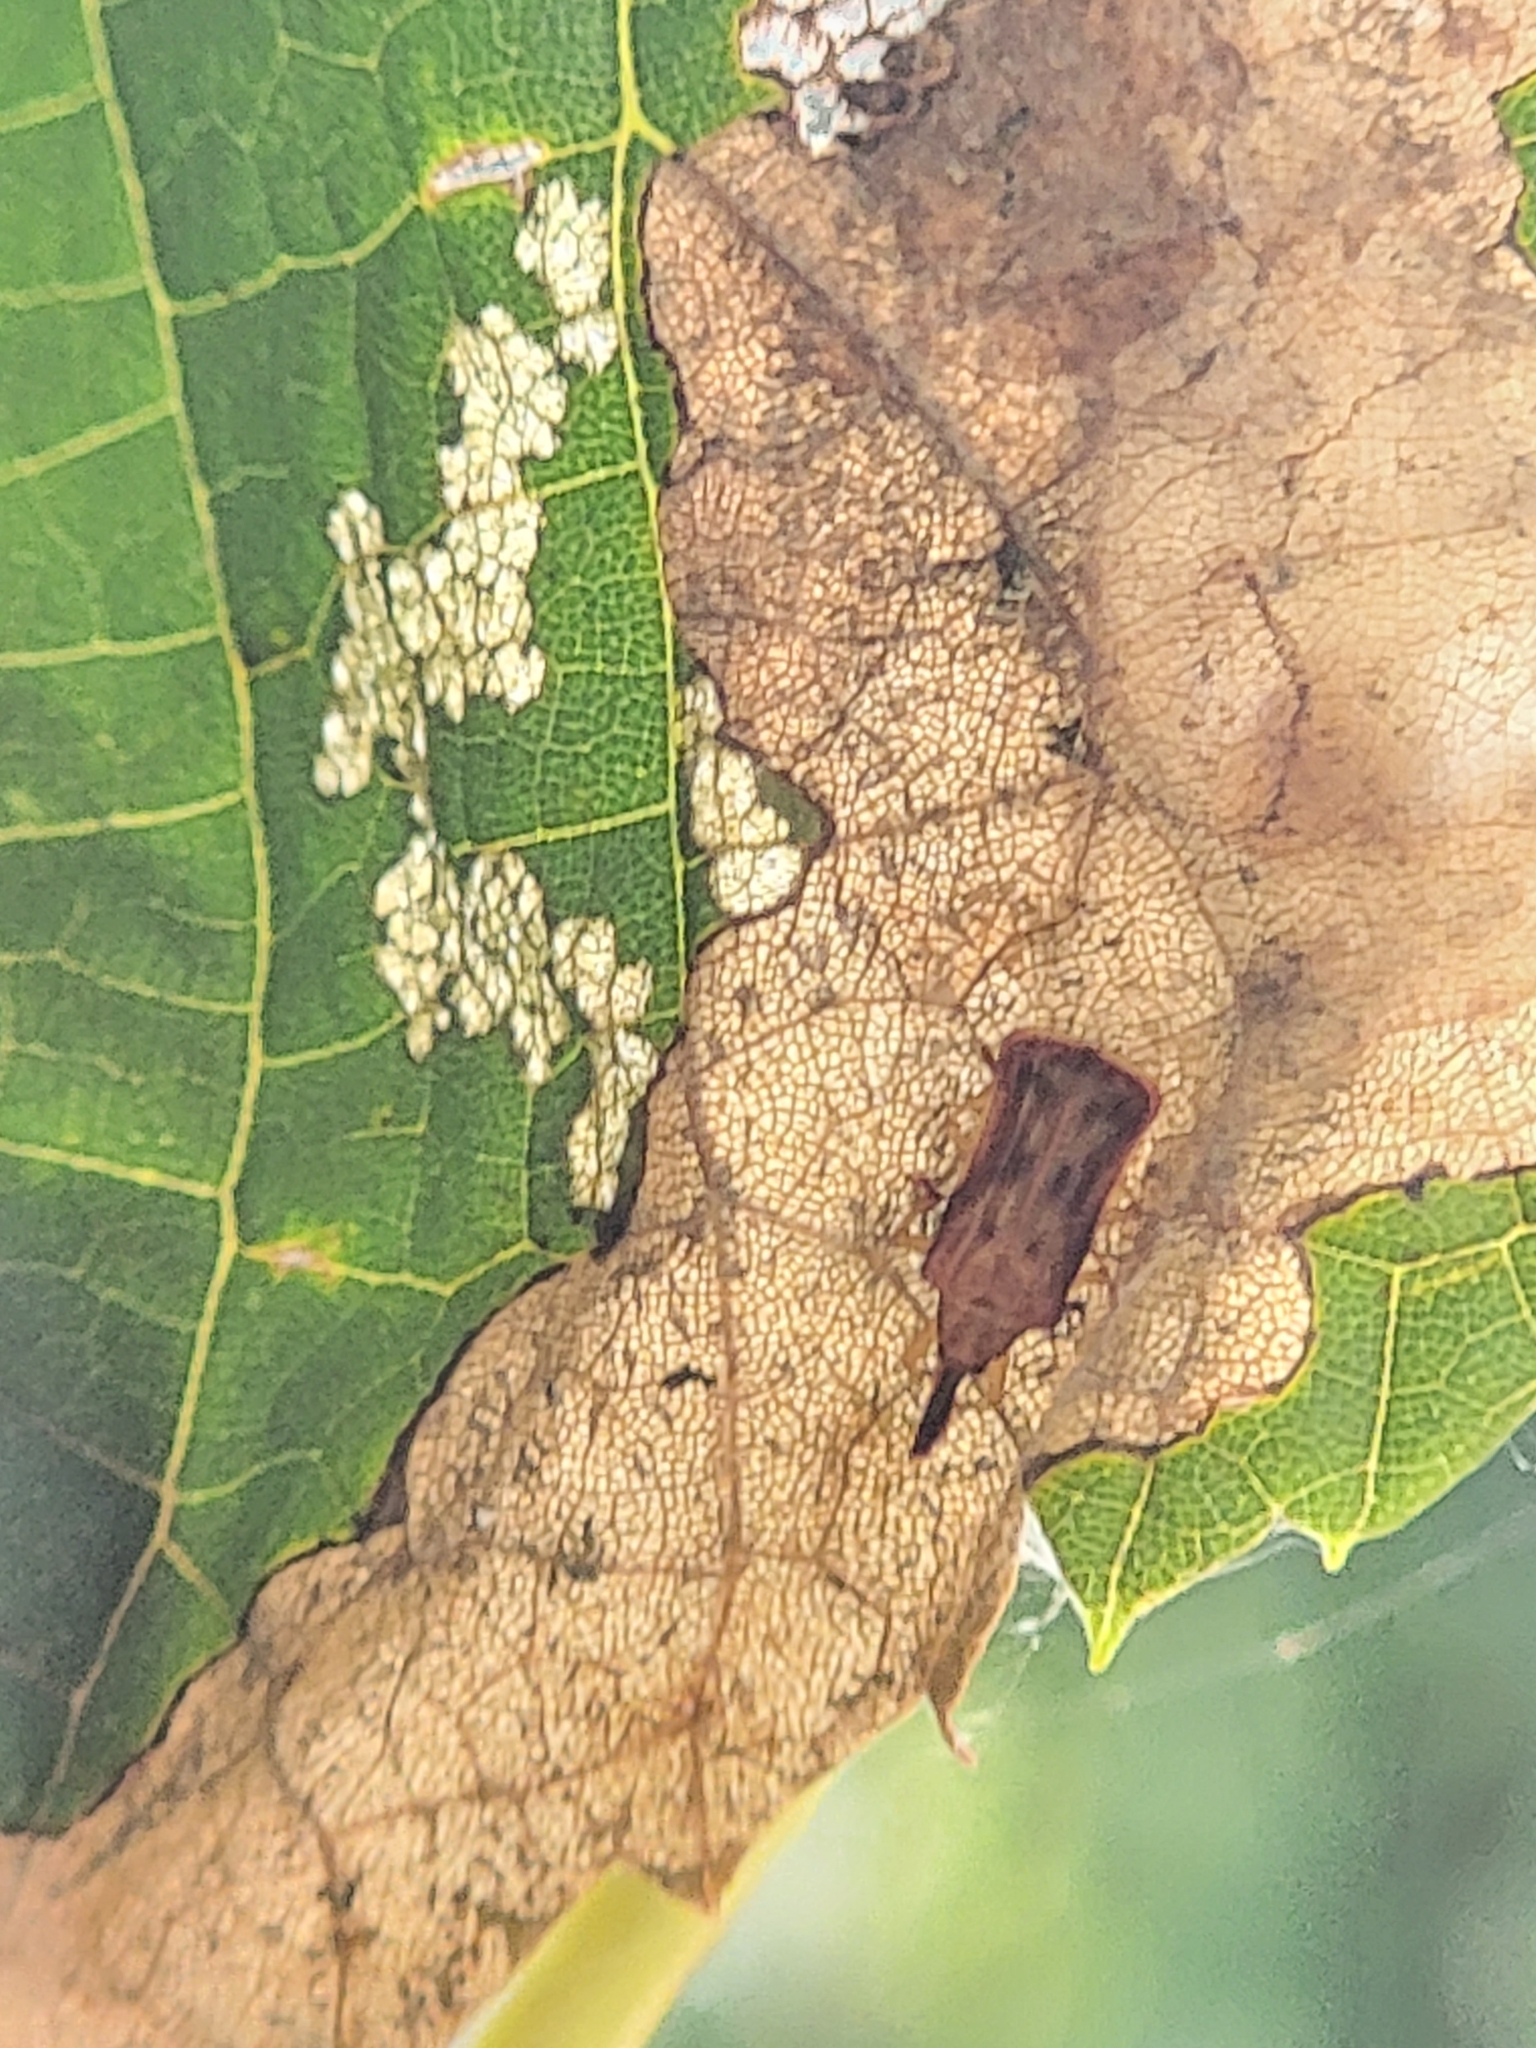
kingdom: Animalia
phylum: Arthropoda
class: Insecta
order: Coleoptera
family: Chrysomelidae
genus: Baliosus
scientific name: Baliosus nervosus
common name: Basswood leaf miner
